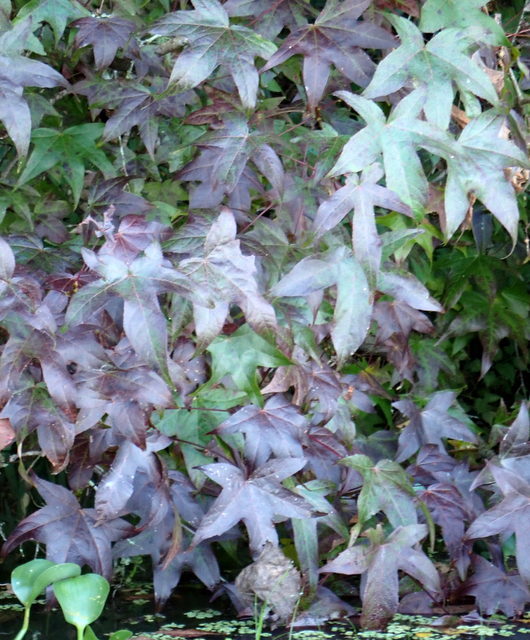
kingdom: Plantae
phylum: Tracheophyta
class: Magnoliopsida
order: Saxifragales
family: Altingiaceae
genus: Liquidambar
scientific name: Liquidambar styraciflua
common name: Sweet gum
